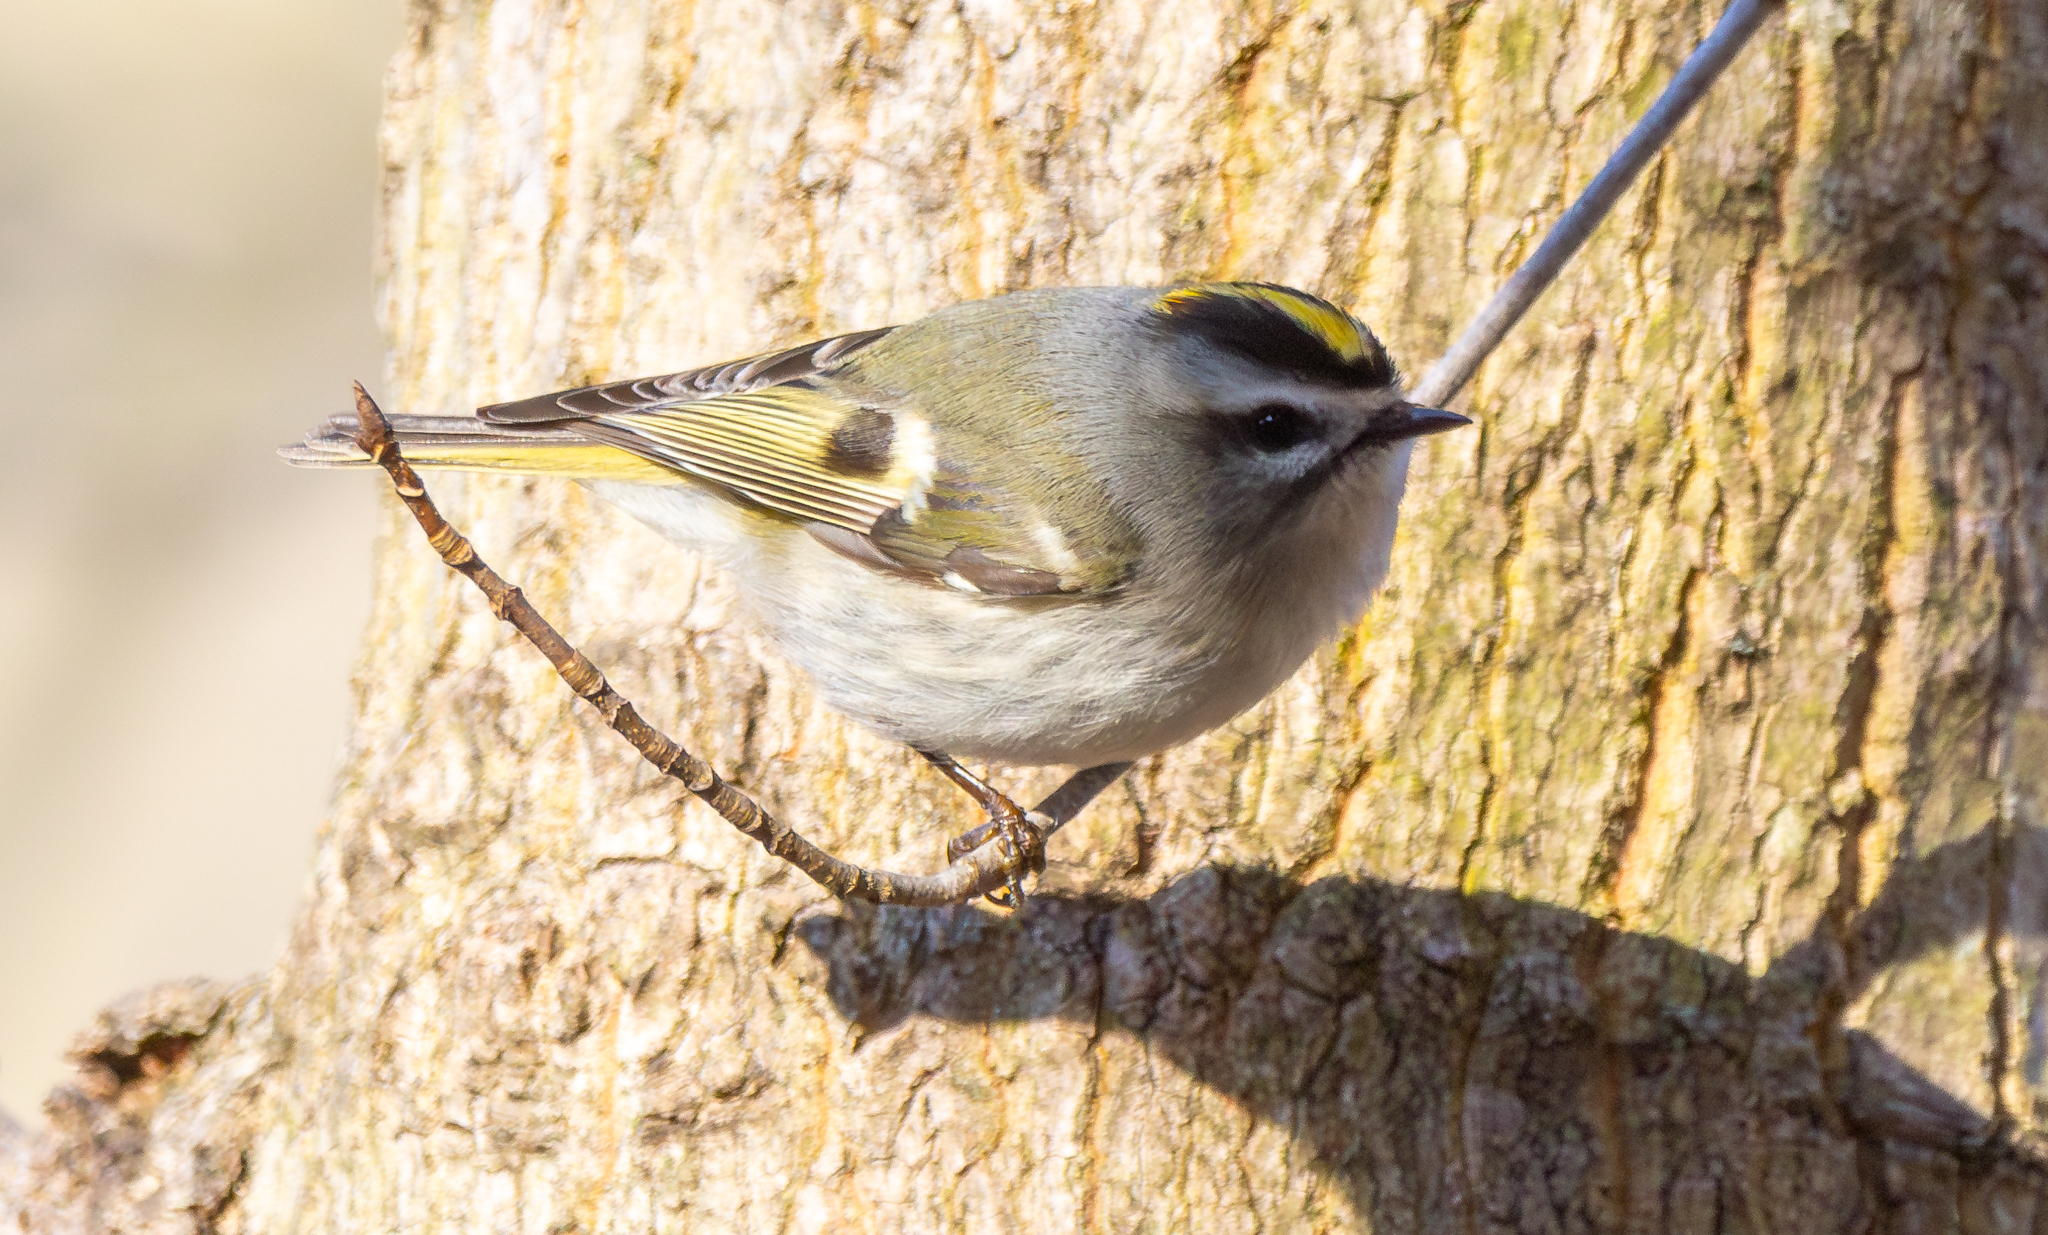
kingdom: Animalia
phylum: Chordata
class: Aves
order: Passeriformes
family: Regulidae
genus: Regulus
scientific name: Regulus satrapa
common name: Golden-crowned kinglet
